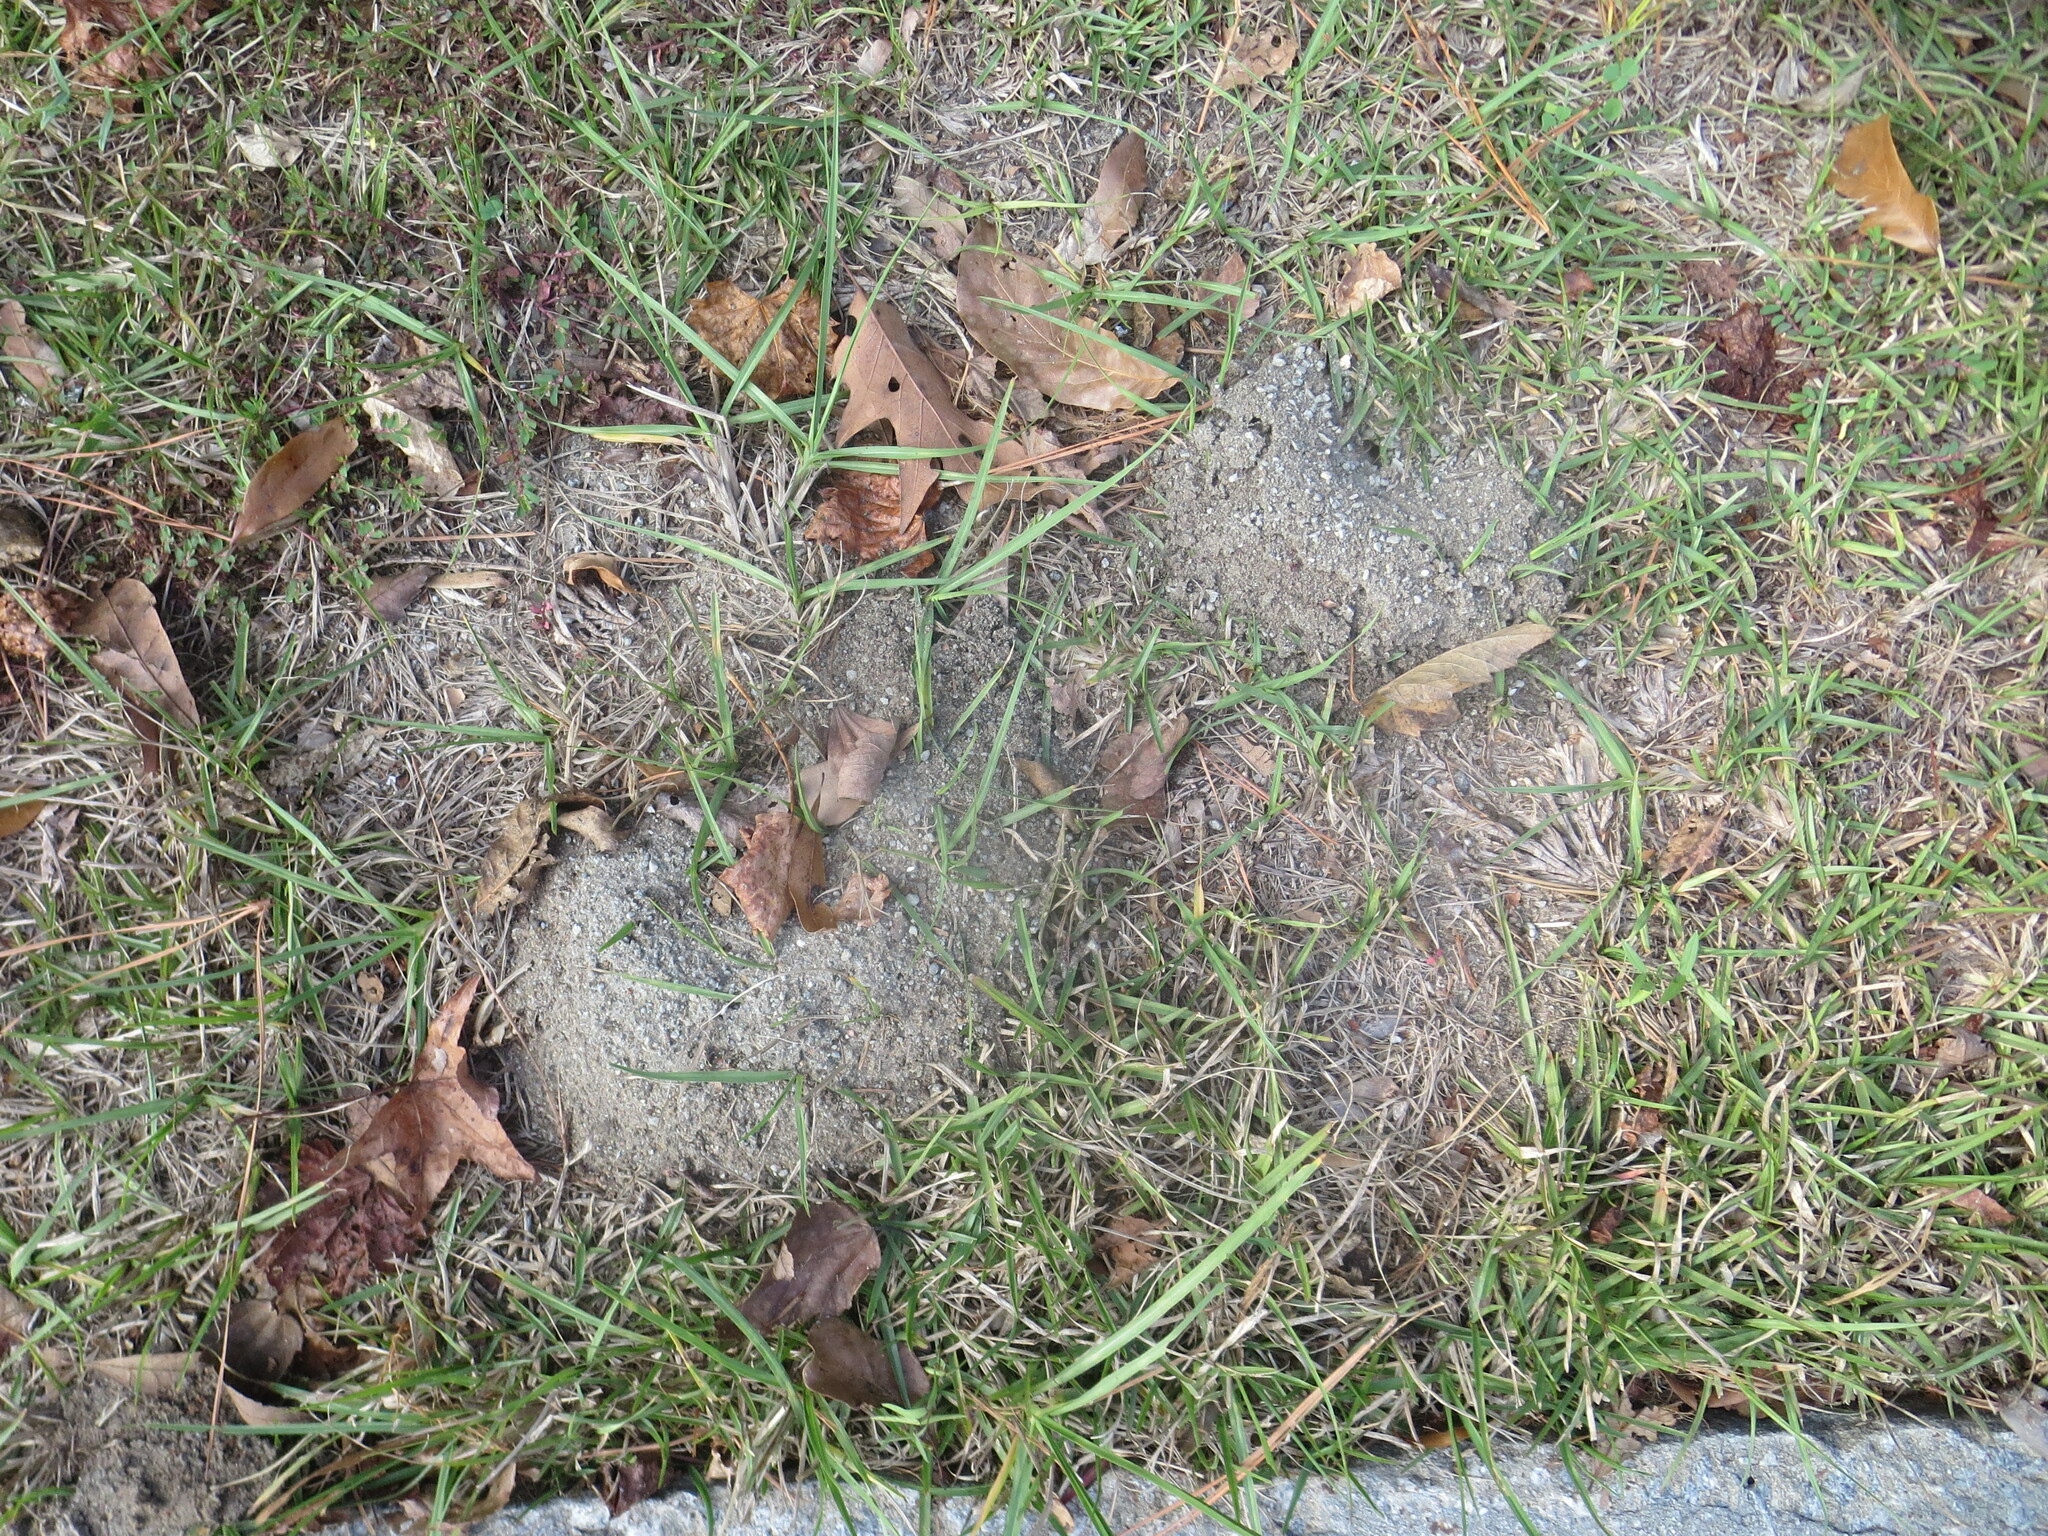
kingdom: Animalia
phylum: Arthropoda
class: Insecta
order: Hymenoptera
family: Formicidae
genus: Solenopsis
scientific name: Solenopsis invicta
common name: Red imported fire ant
